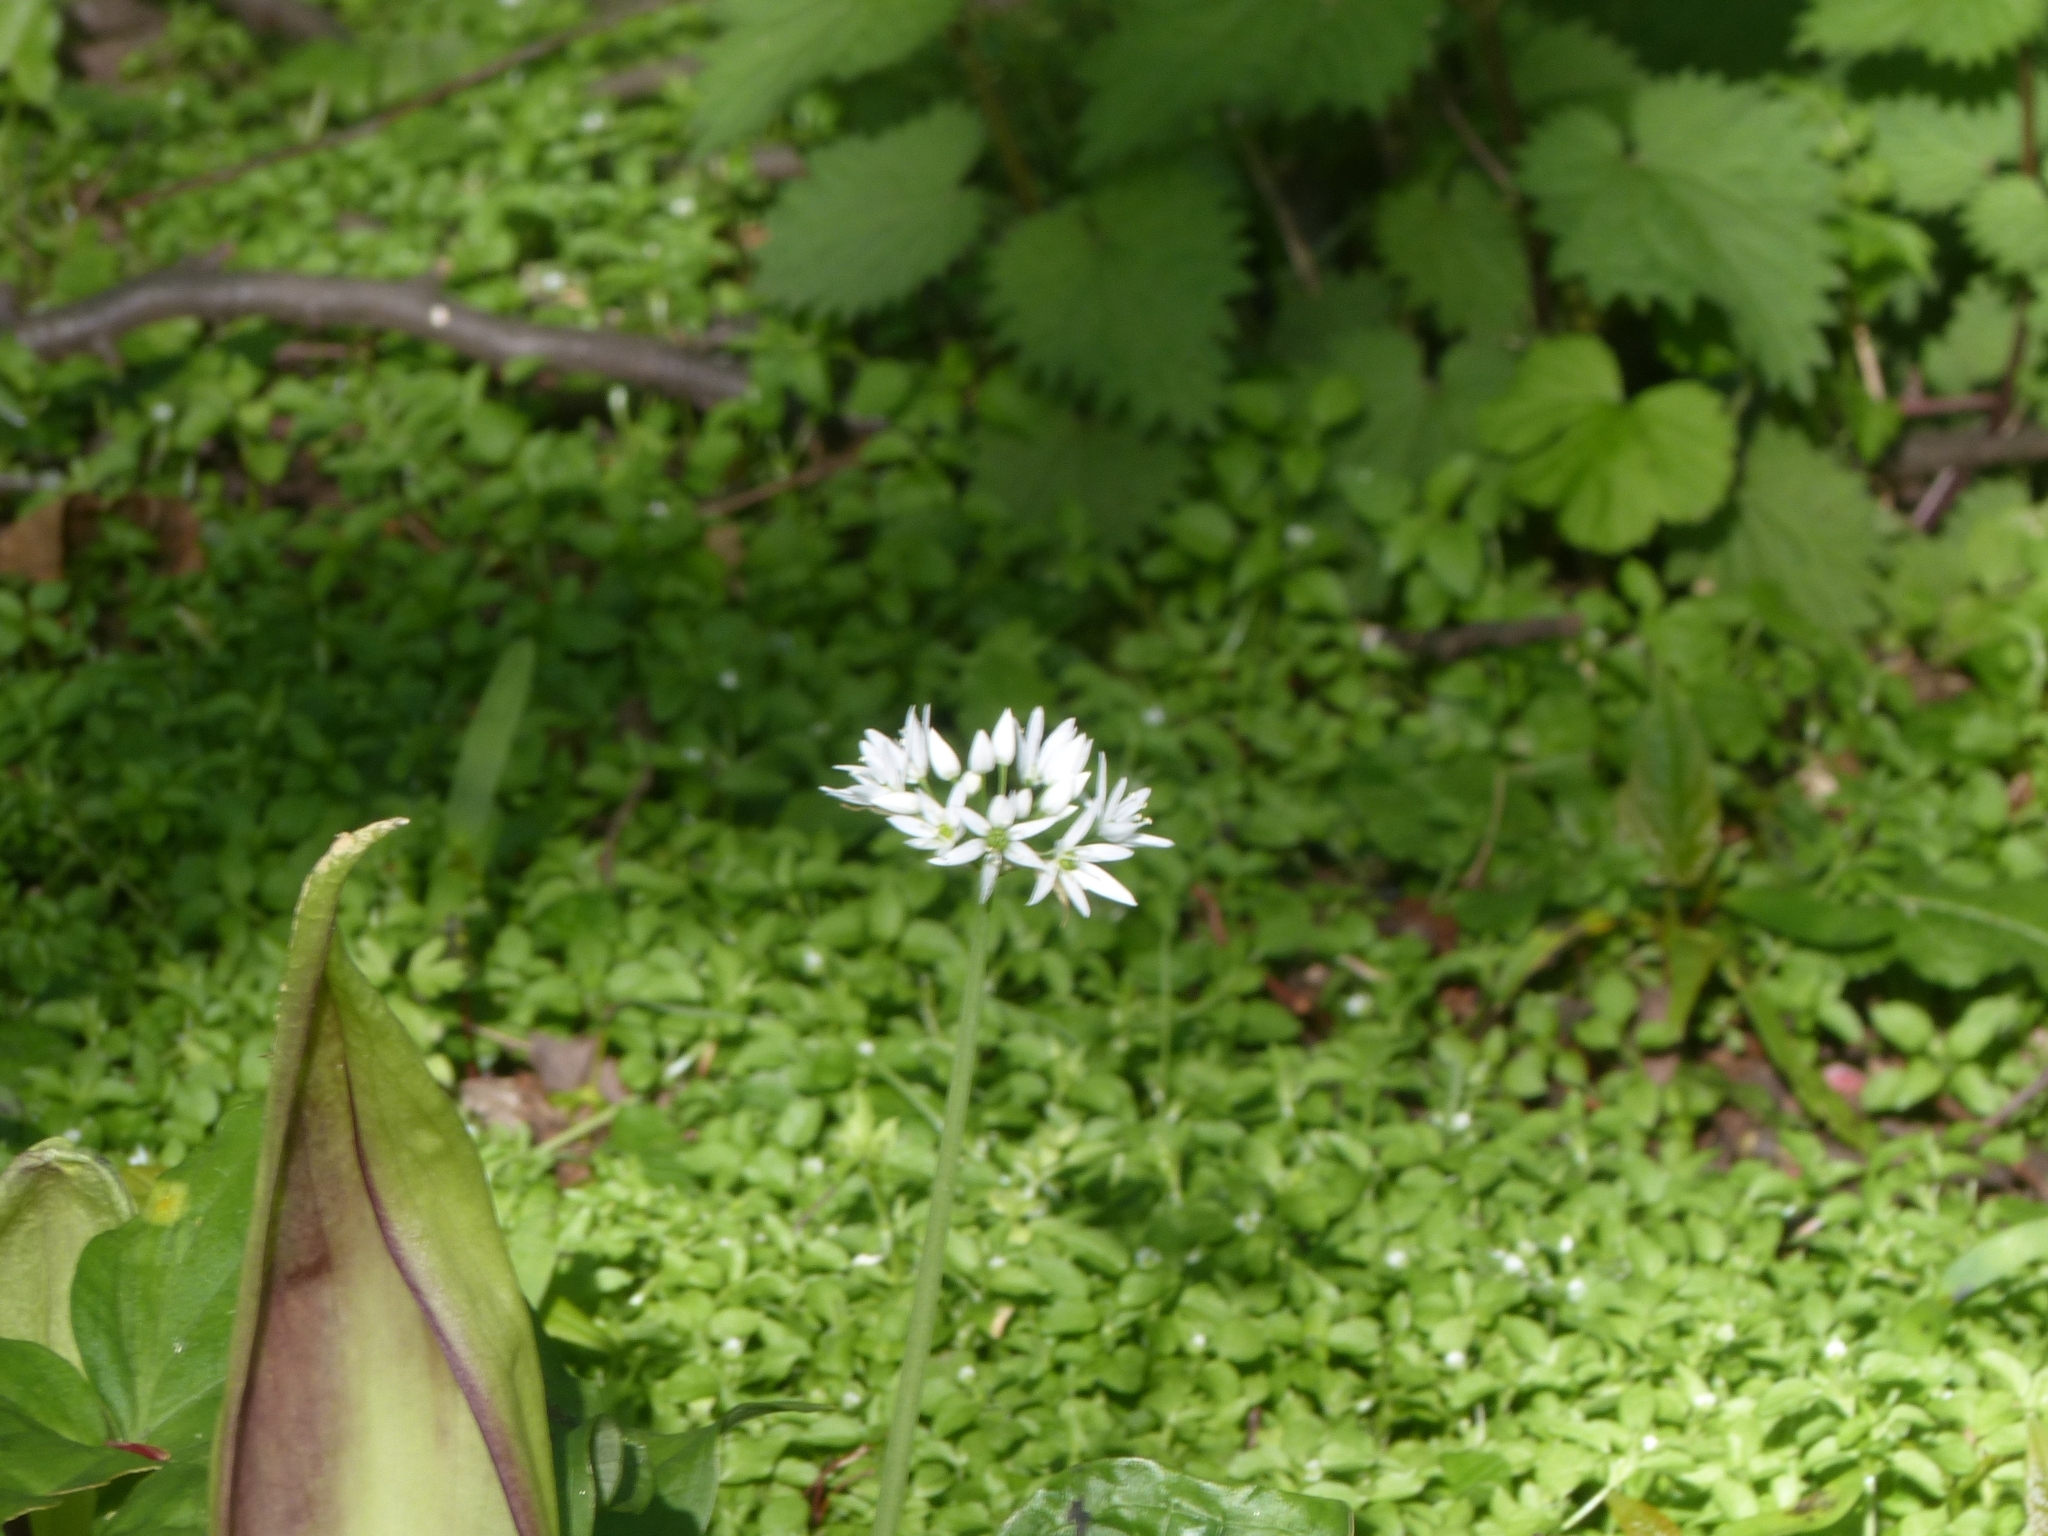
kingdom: Plantae
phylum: Tracheophyta
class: Liliopsida
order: Asparagales
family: Amaryllidaceae
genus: Allium
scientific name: Allium ursinum
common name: Ramsons
